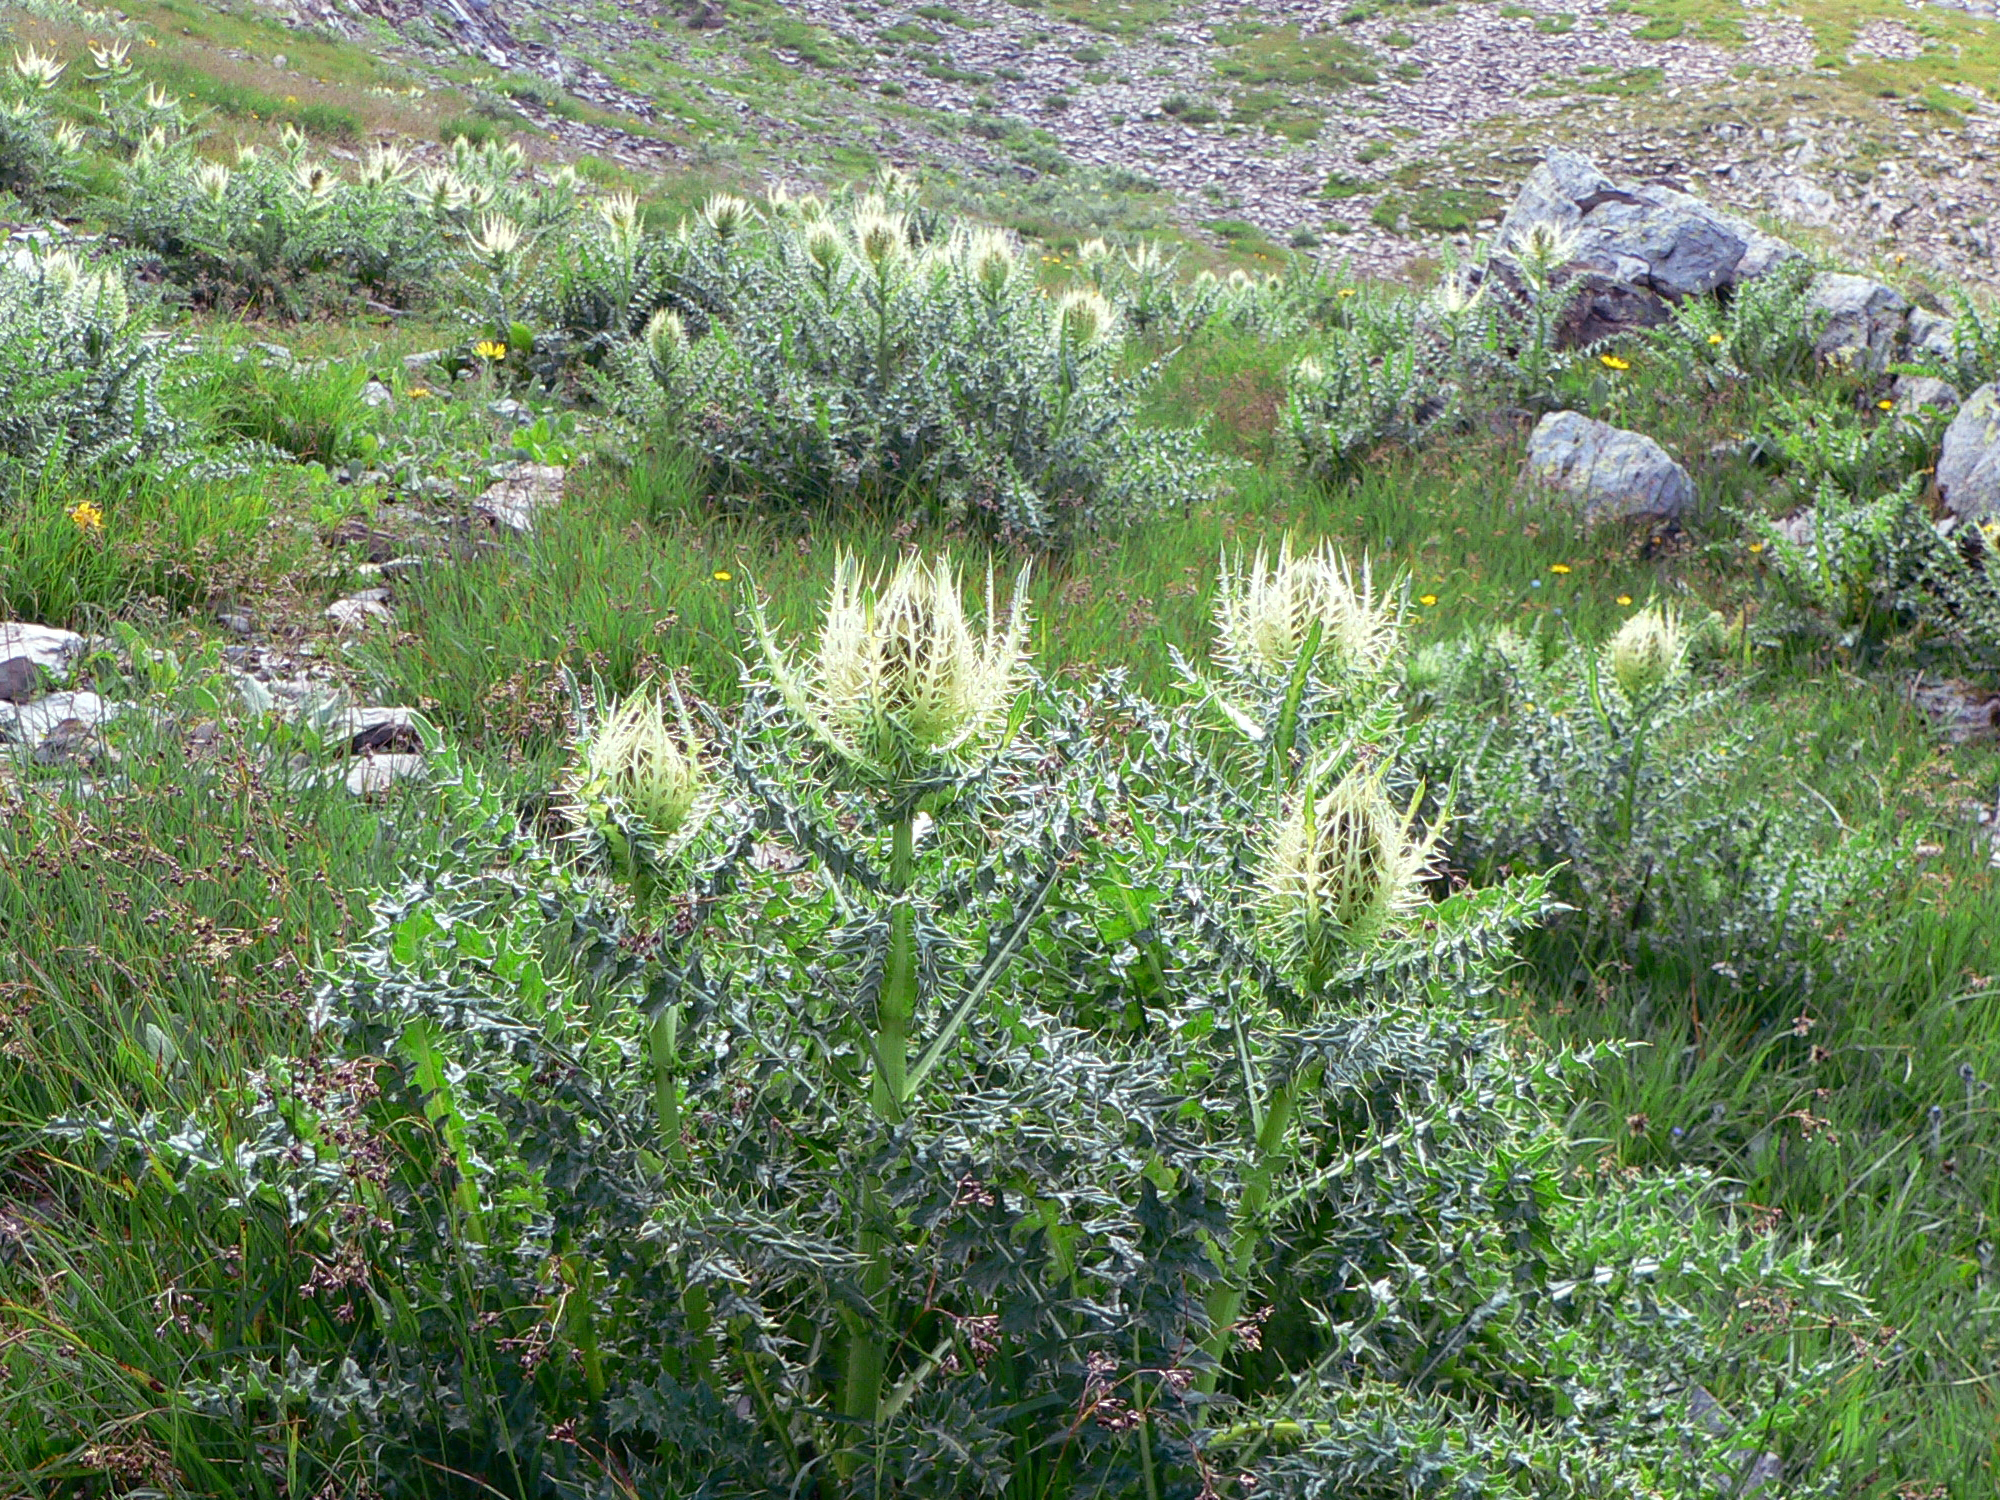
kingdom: Plantae
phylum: Tracheophyta
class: Magnoliopsida
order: Asterales
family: Asteraceae
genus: Cirsium
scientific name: Cirsium spinosissimum
